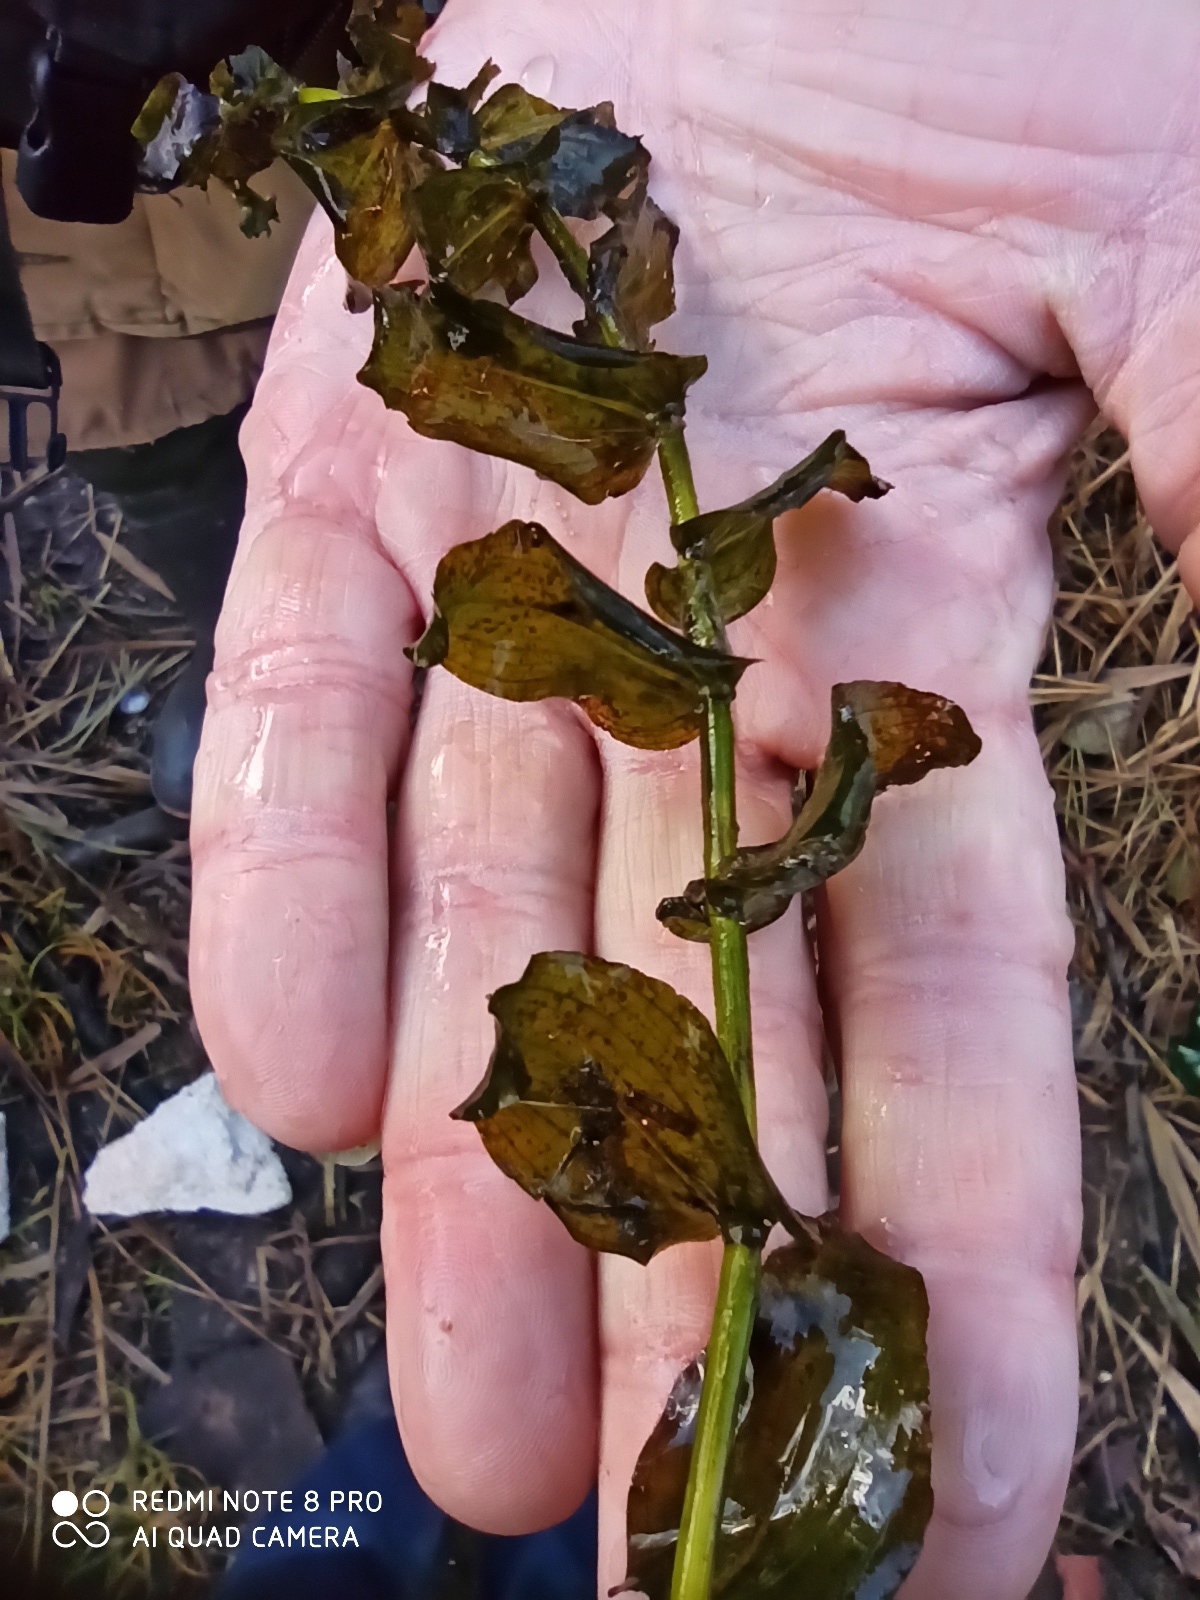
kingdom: Plantae
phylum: Tracheophyta
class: Liliopsida
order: Alismatales
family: Potamogetonaceae
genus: Potamogeton
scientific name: Potamogeton perfoliatus
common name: Perfoliate pondweed
